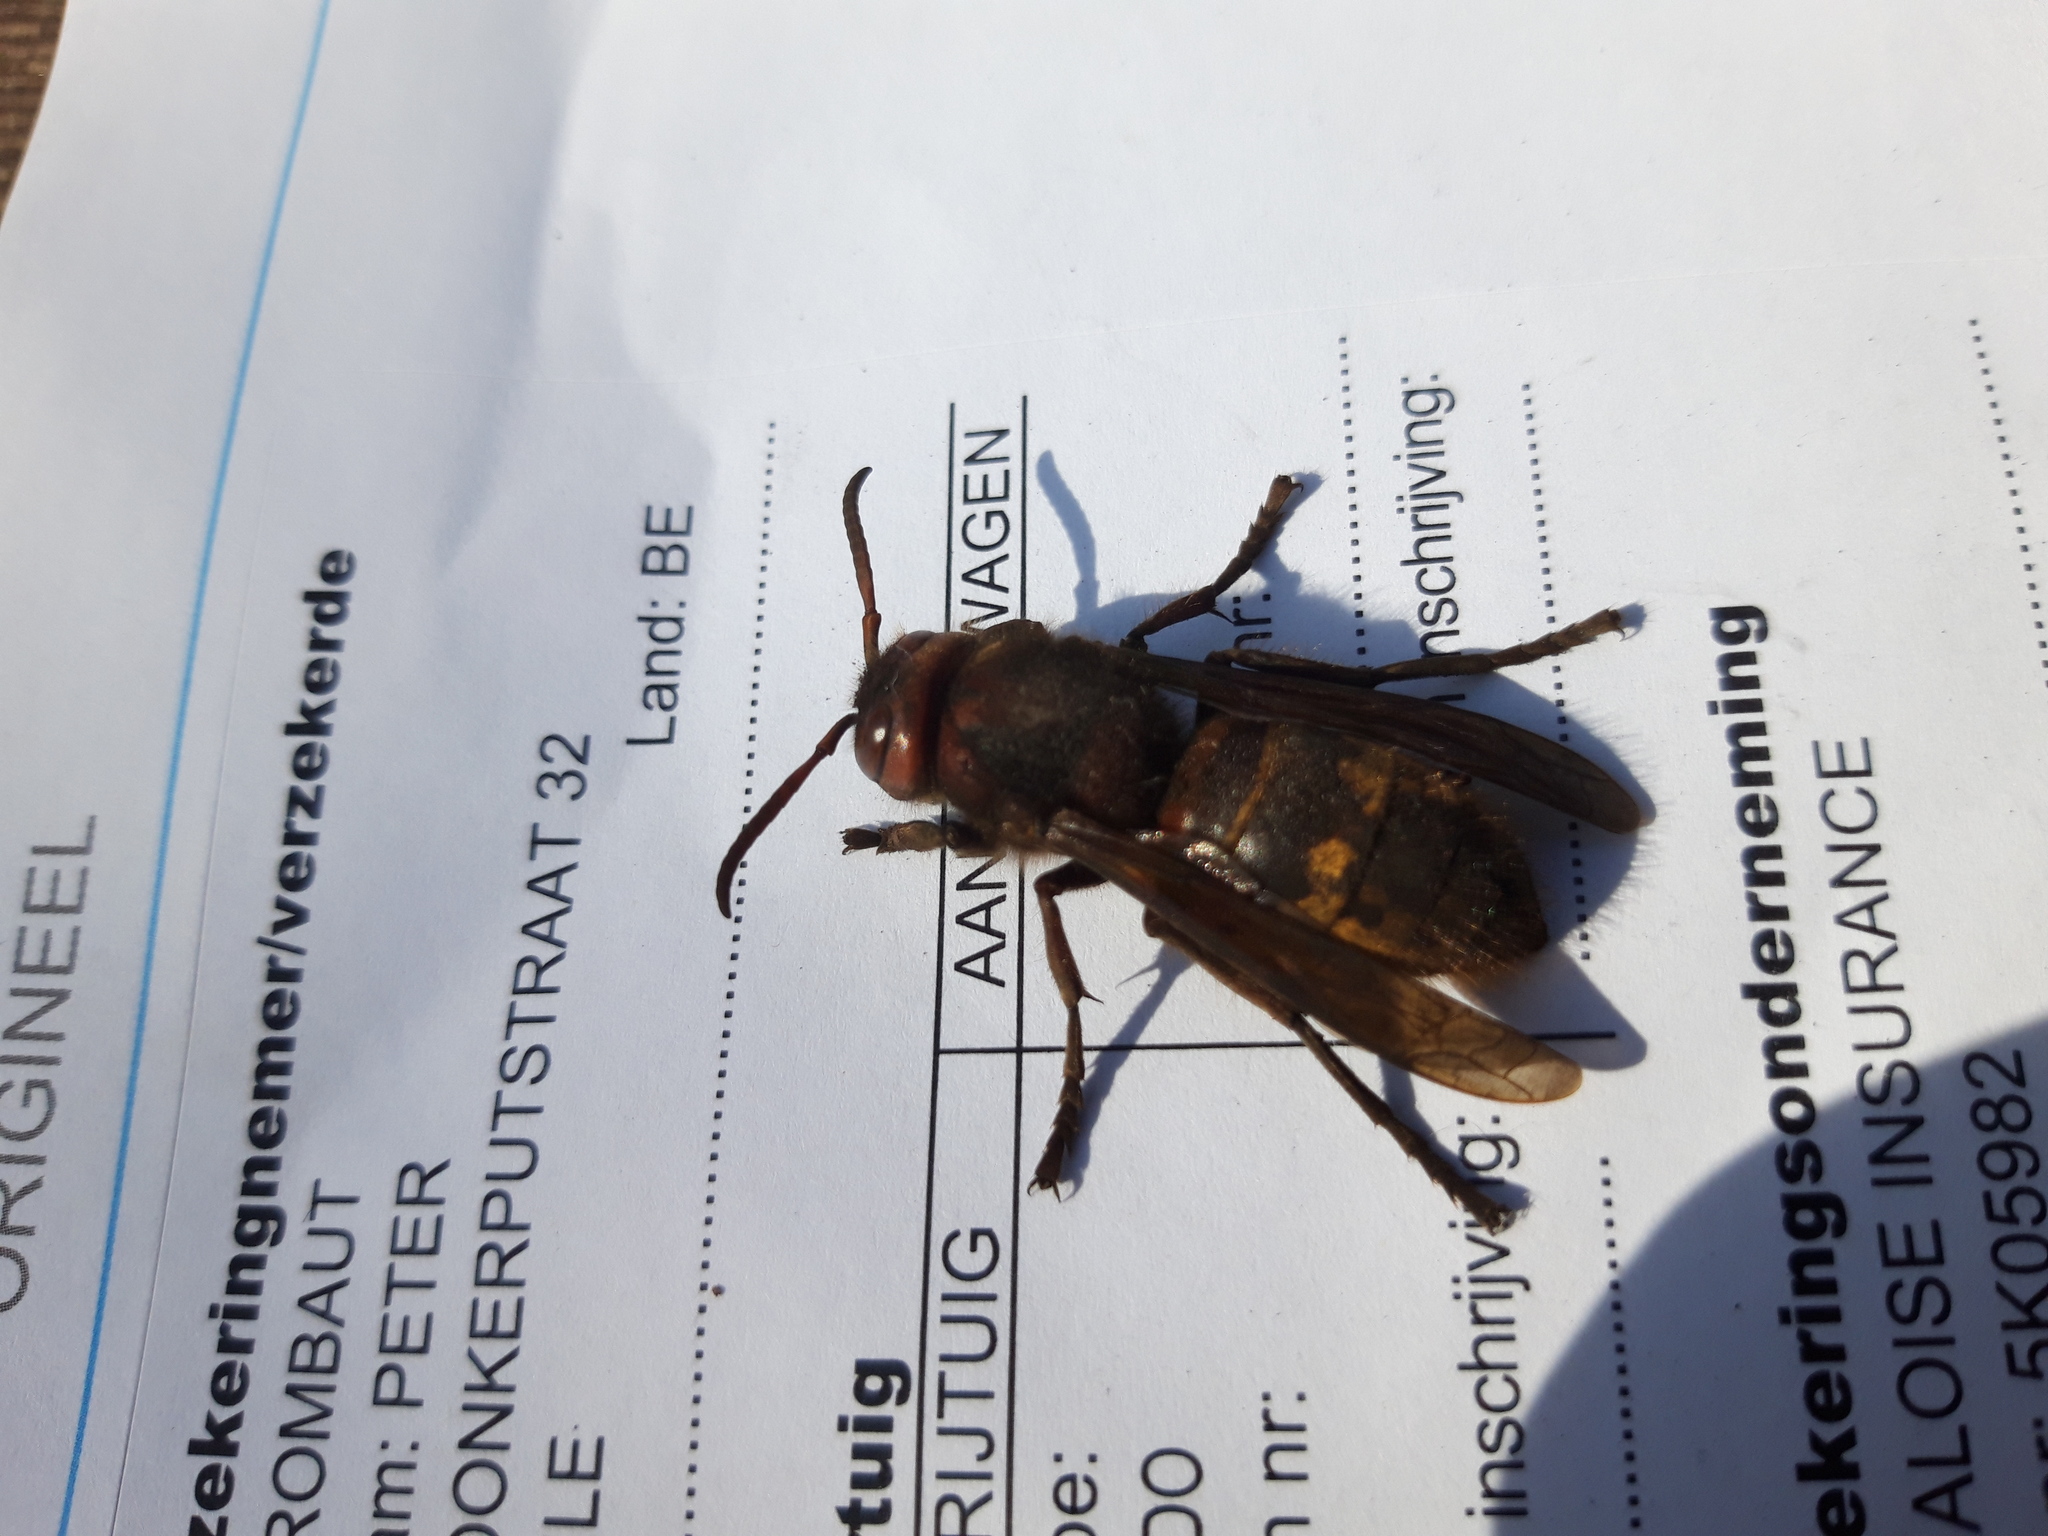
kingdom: Animalia
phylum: Arthropoda
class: Insecta
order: Hymenoptera
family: Vespidae
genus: Vespa
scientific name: Vespa crabro
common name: Hornet
